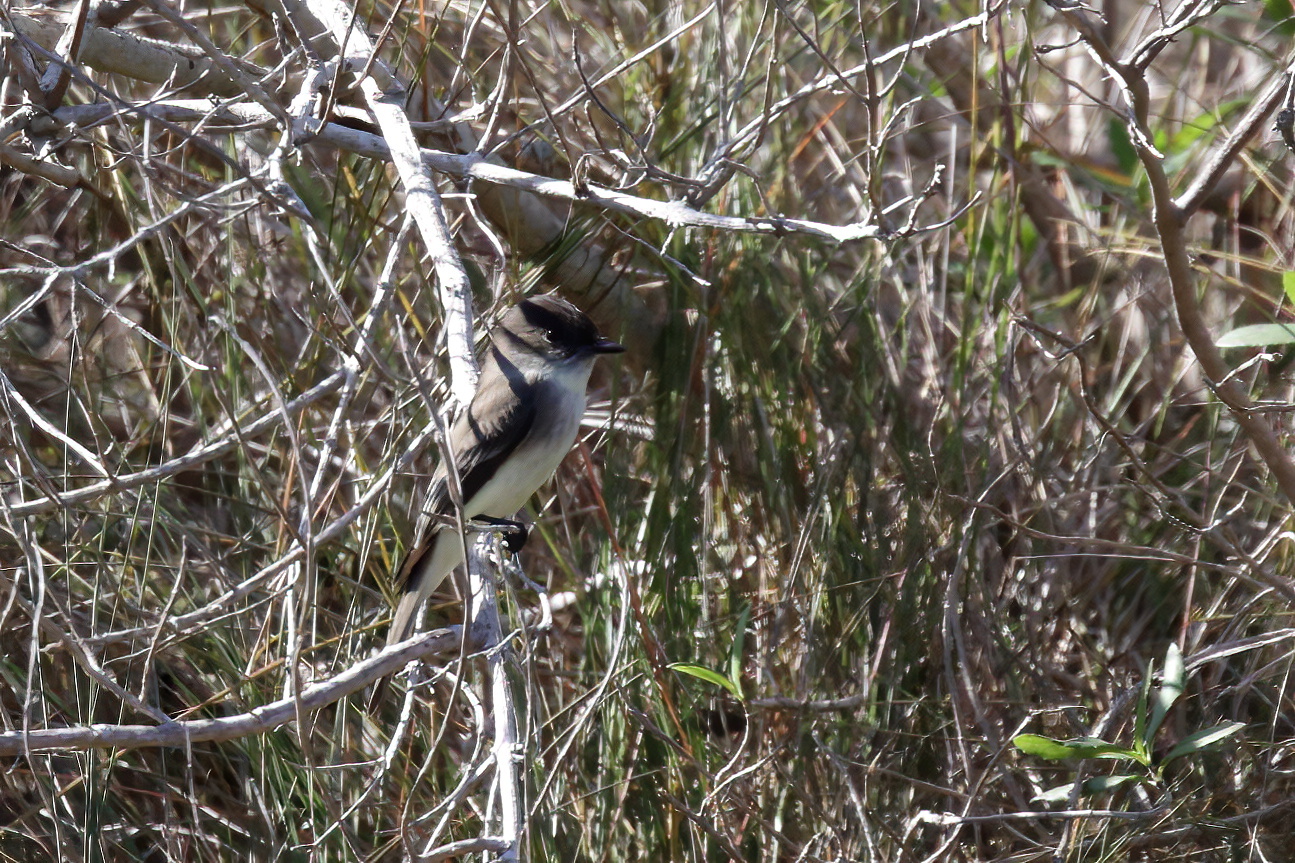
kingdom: Animalia
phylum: Chordata
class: Aves
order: Passeriformes
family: Tyrannidae
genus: Sayornis
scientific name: Sayornis phoebe
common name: Eastern phoebe
